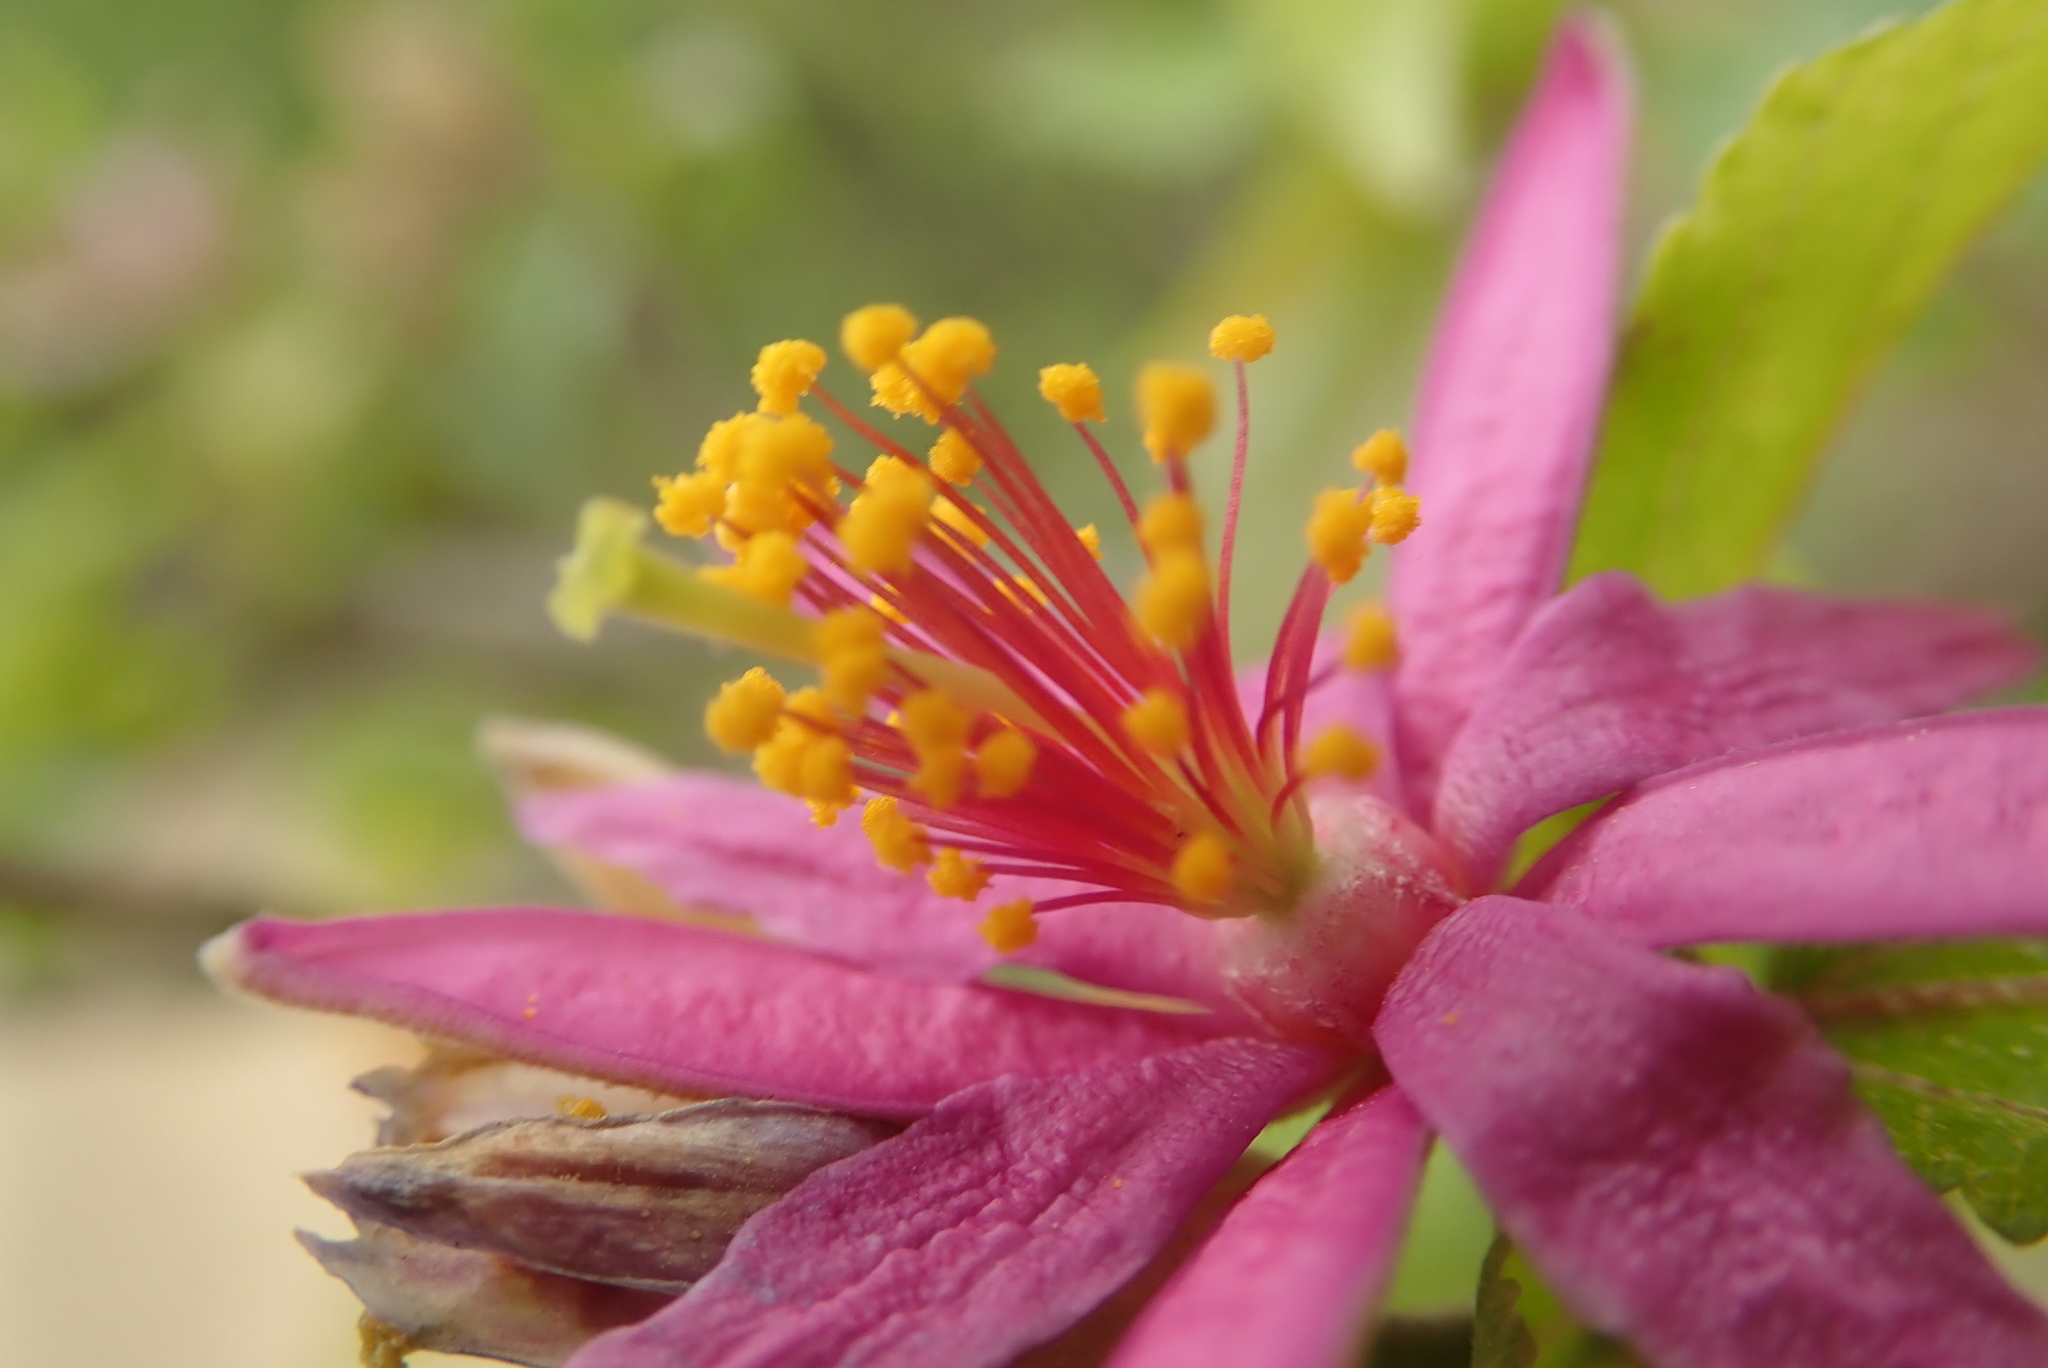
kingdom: Plantae
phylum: Tracheophyta
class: Magnoliopsida
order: Malvales
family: Malvaceae
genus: Grewia
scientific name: Grewia occidentalis
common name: Crossberry
